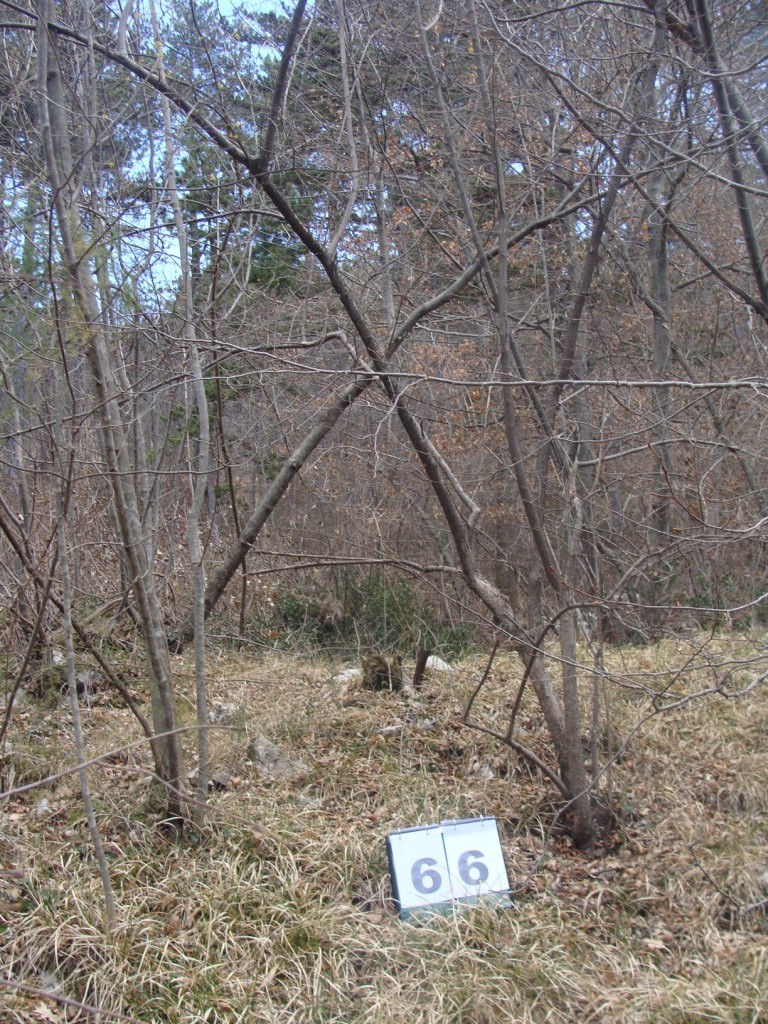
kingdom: Plantae
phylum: Tracheophyta
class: Magnoliopsida
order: Cornales
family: Cornaceae
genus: Cornus
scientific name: Cornus mas
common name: Cornelian-cherry
